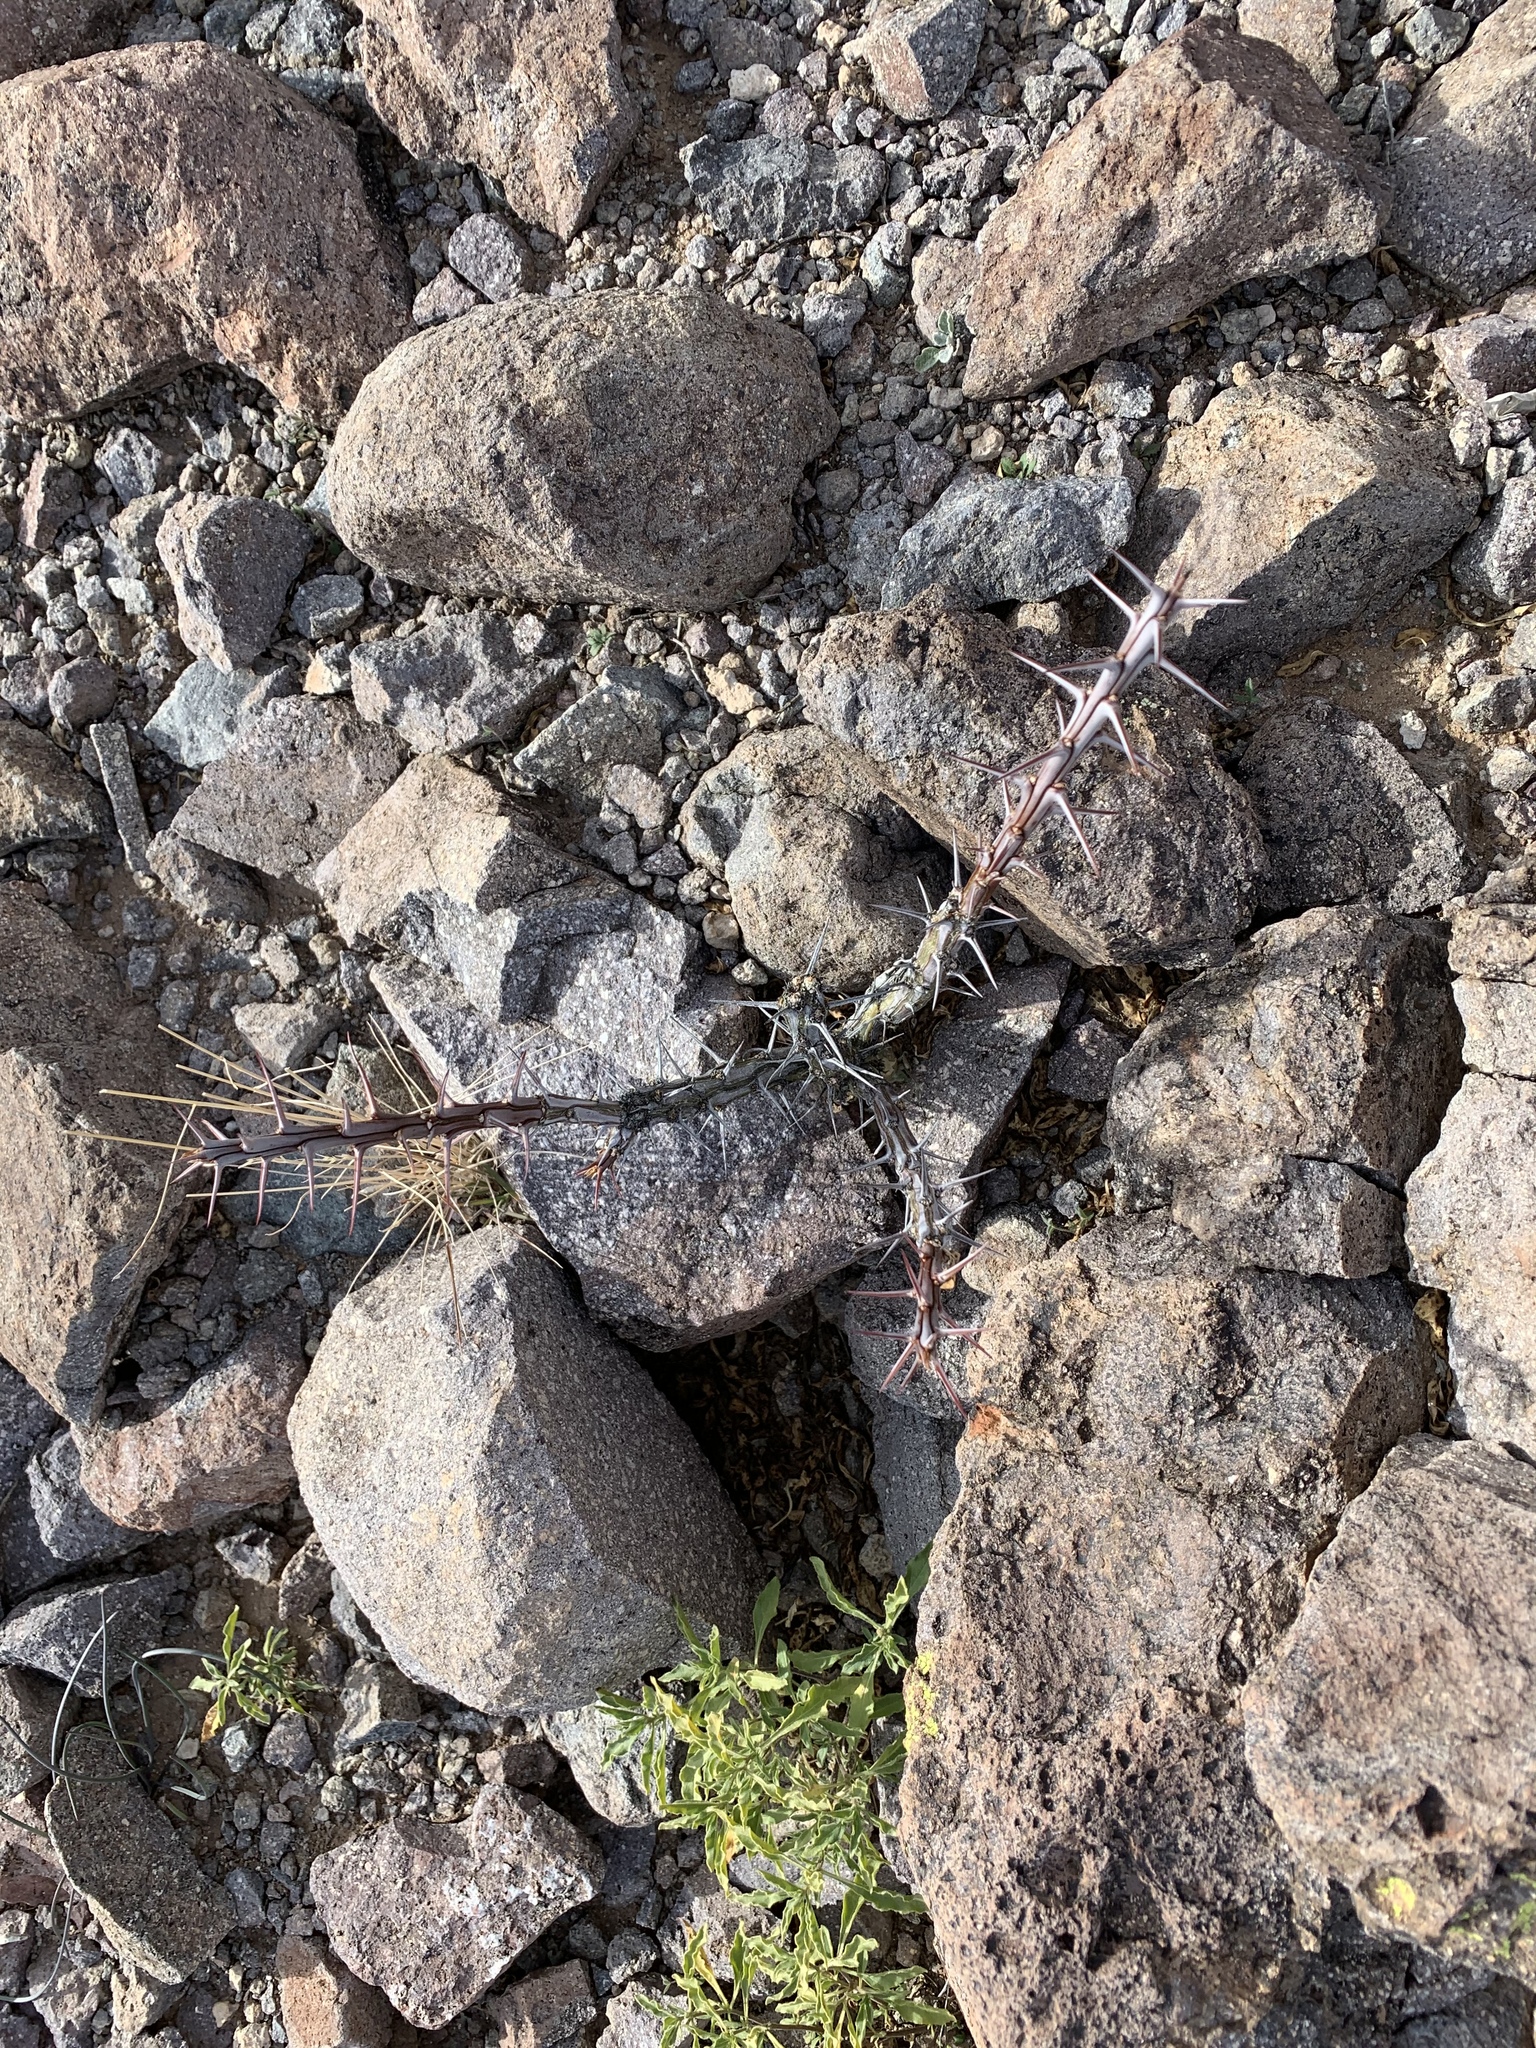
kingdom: Plantae
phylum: Tracheophyta
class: Magnoliopsida
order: Ericales
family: Fouquieriaceae
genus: Fouquieria
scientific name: Fouquieria splendens
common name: Vine-cactus
